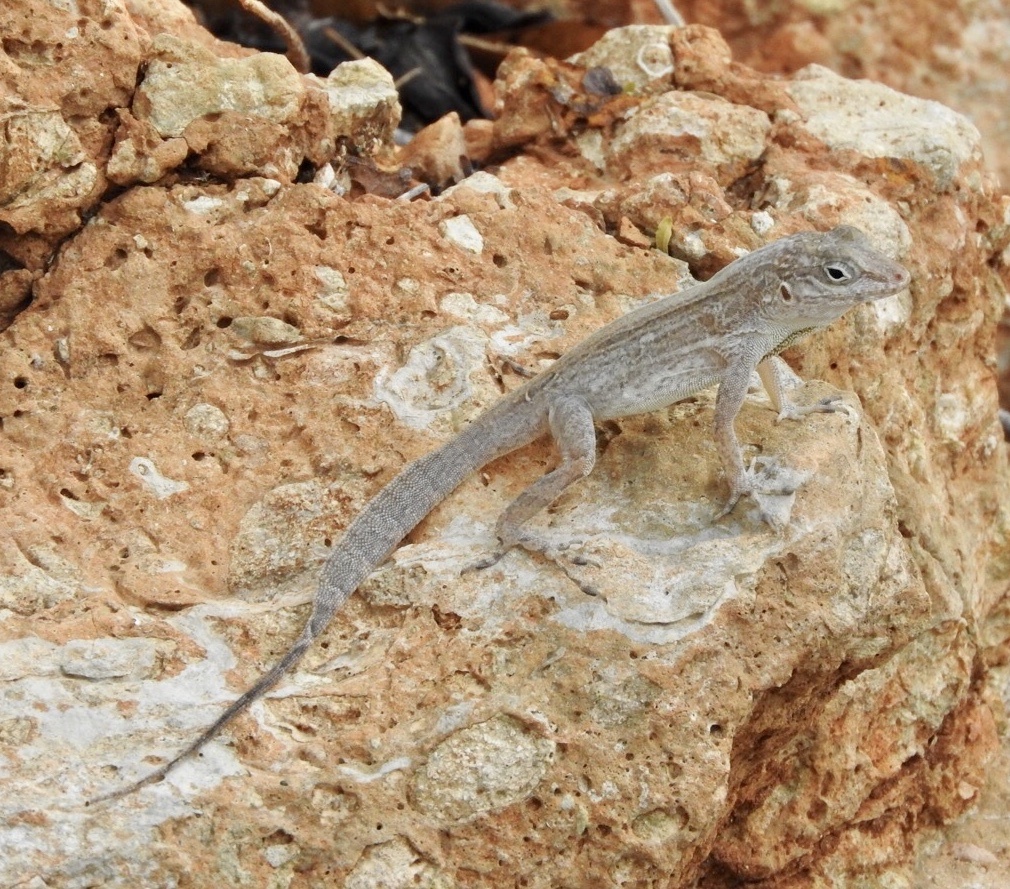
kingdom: Animalia
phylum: Chordata
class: Squamata
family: Dactyloidae
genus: Anolis
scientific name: Anolis cooki
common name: Cook's anole
